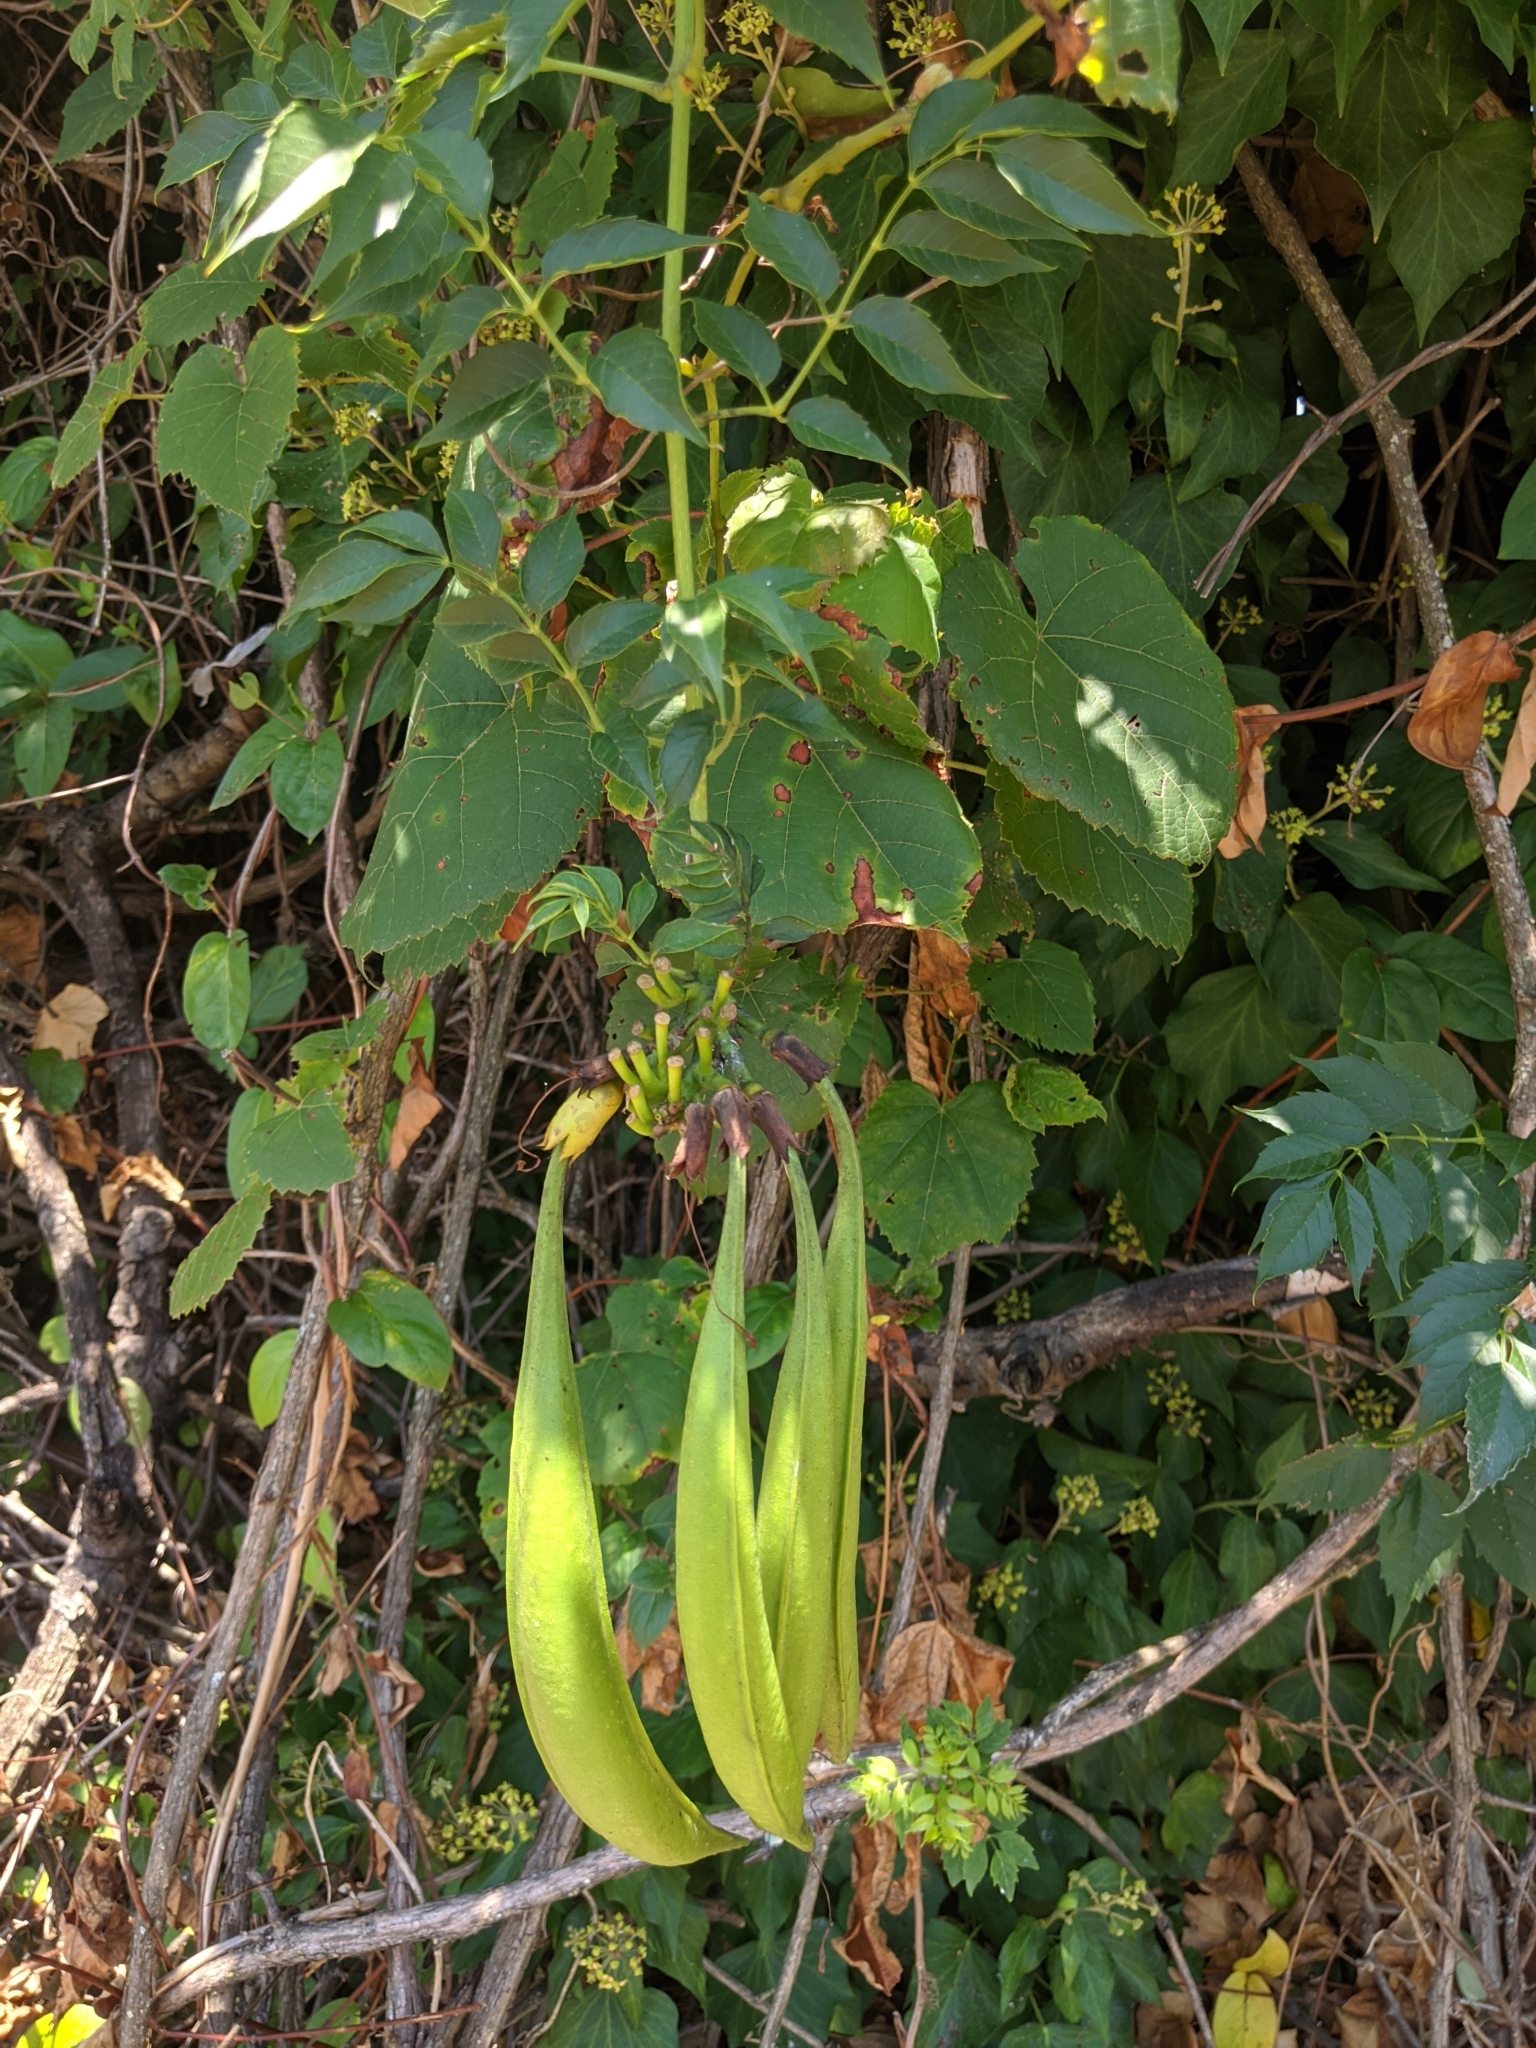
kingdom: Plantae
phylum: Tracheophyta
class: Magnoliopsida
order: Lamiales
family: Bignoniaceae
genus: Campsis
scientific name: Campsis radicans
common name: Trumpet-creeper
